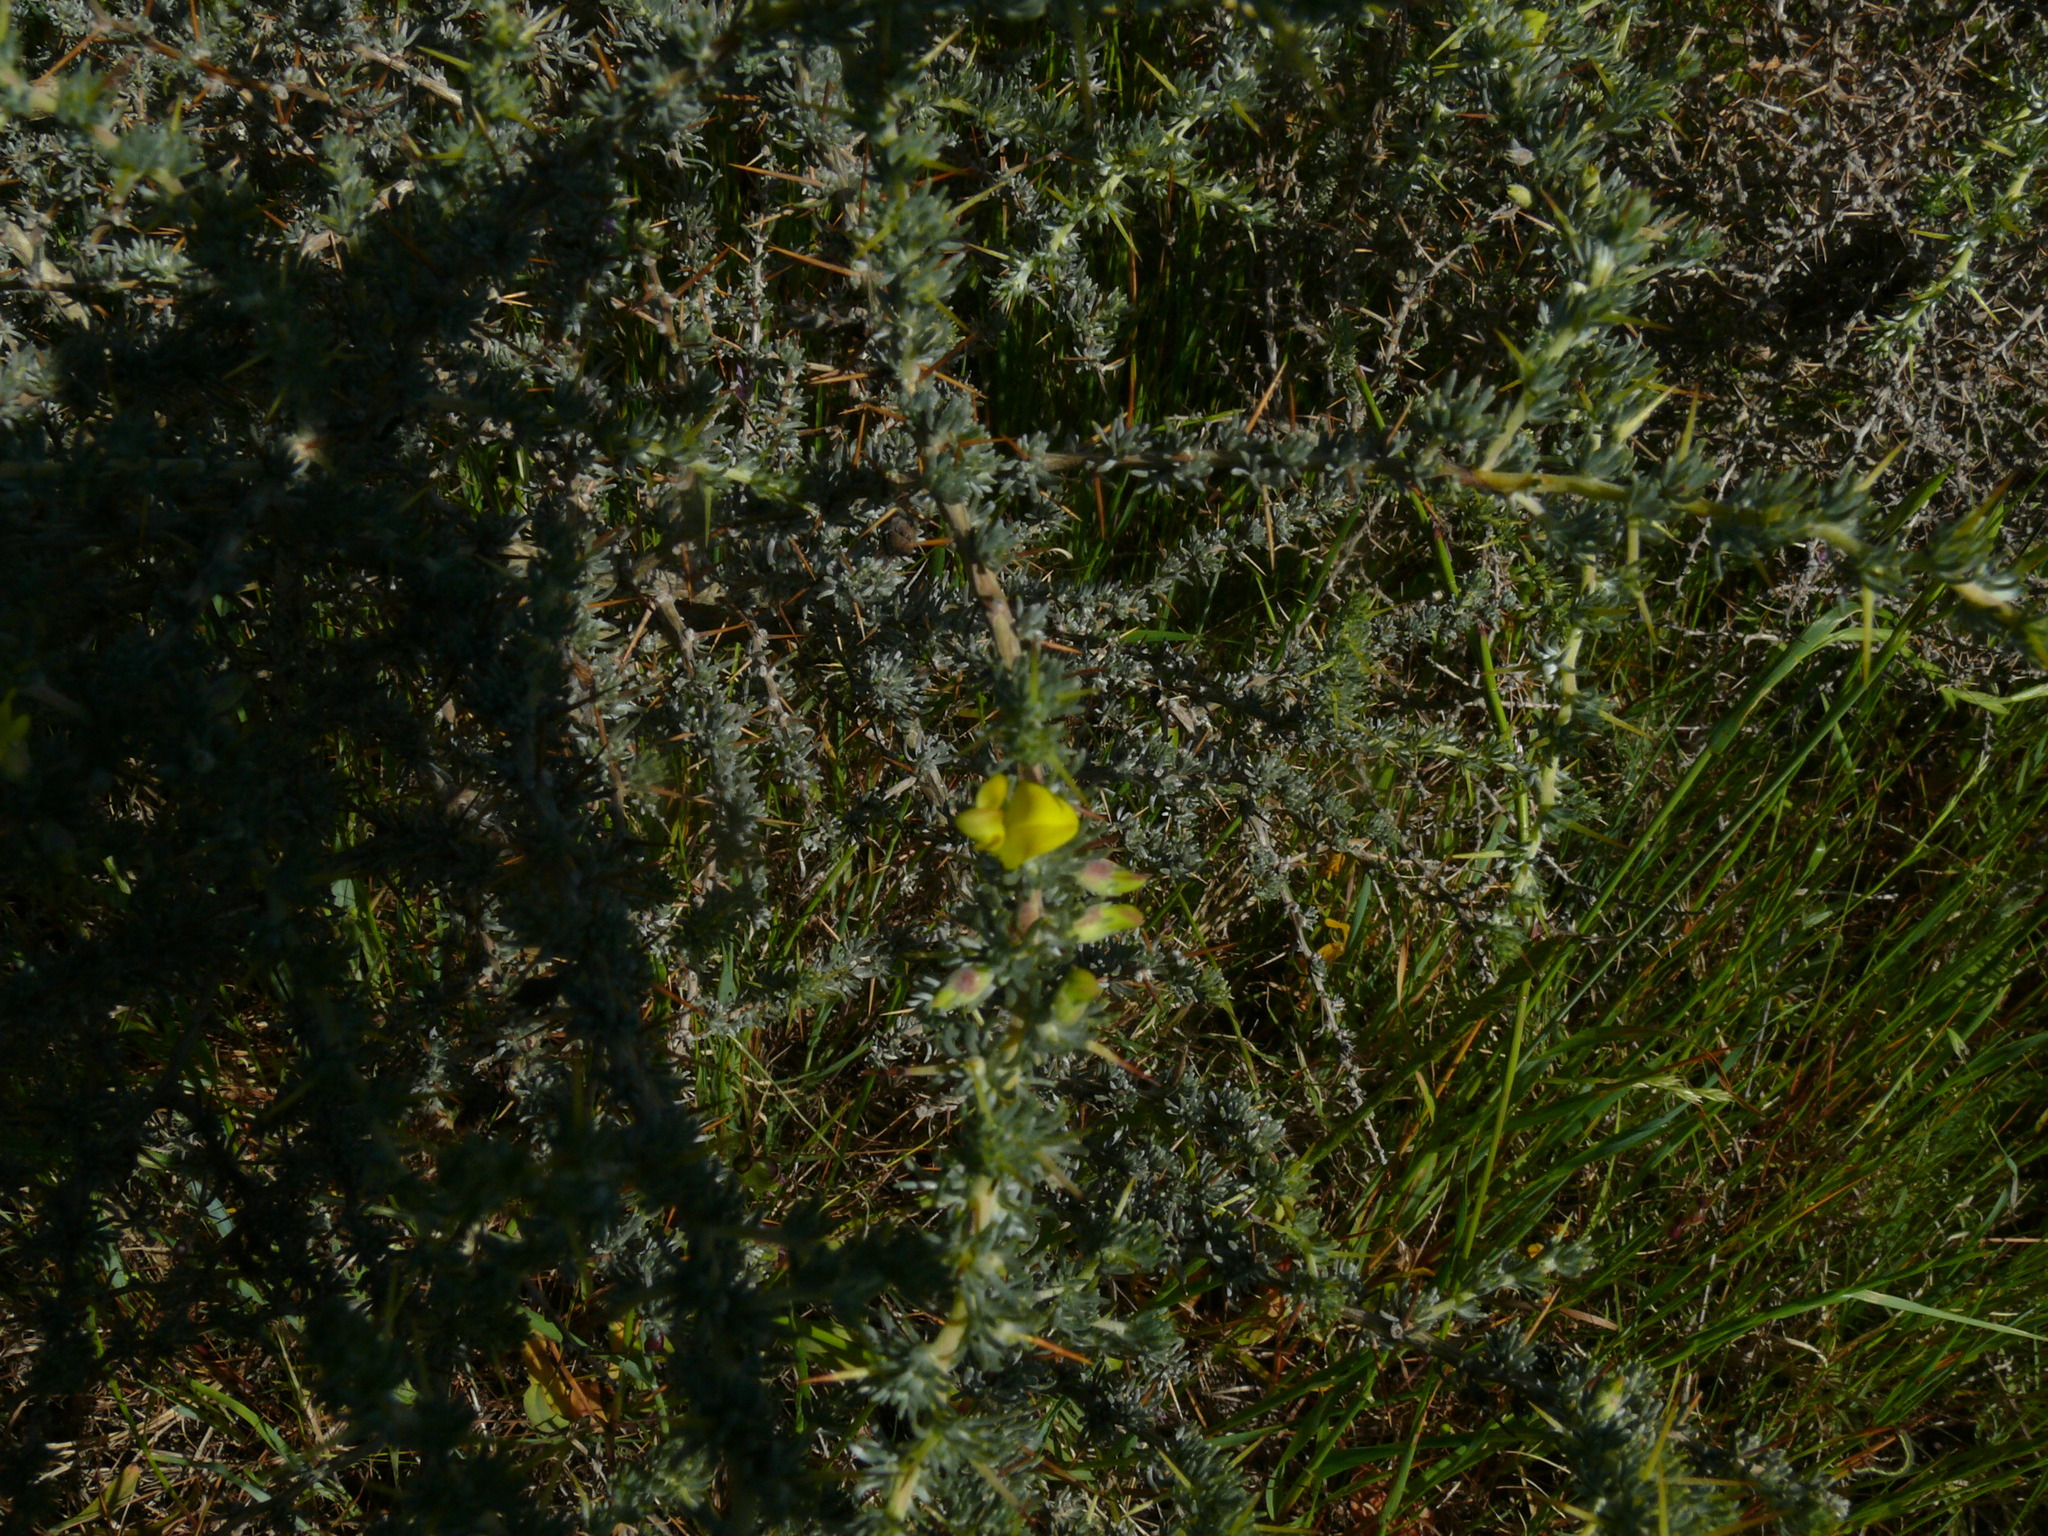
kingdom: Plantae
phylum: Tracheophyta
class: Magnoliopsida
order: Fabales
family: Fabaceae
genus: Aspalathus
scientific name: Aspalathus acanthophylla
